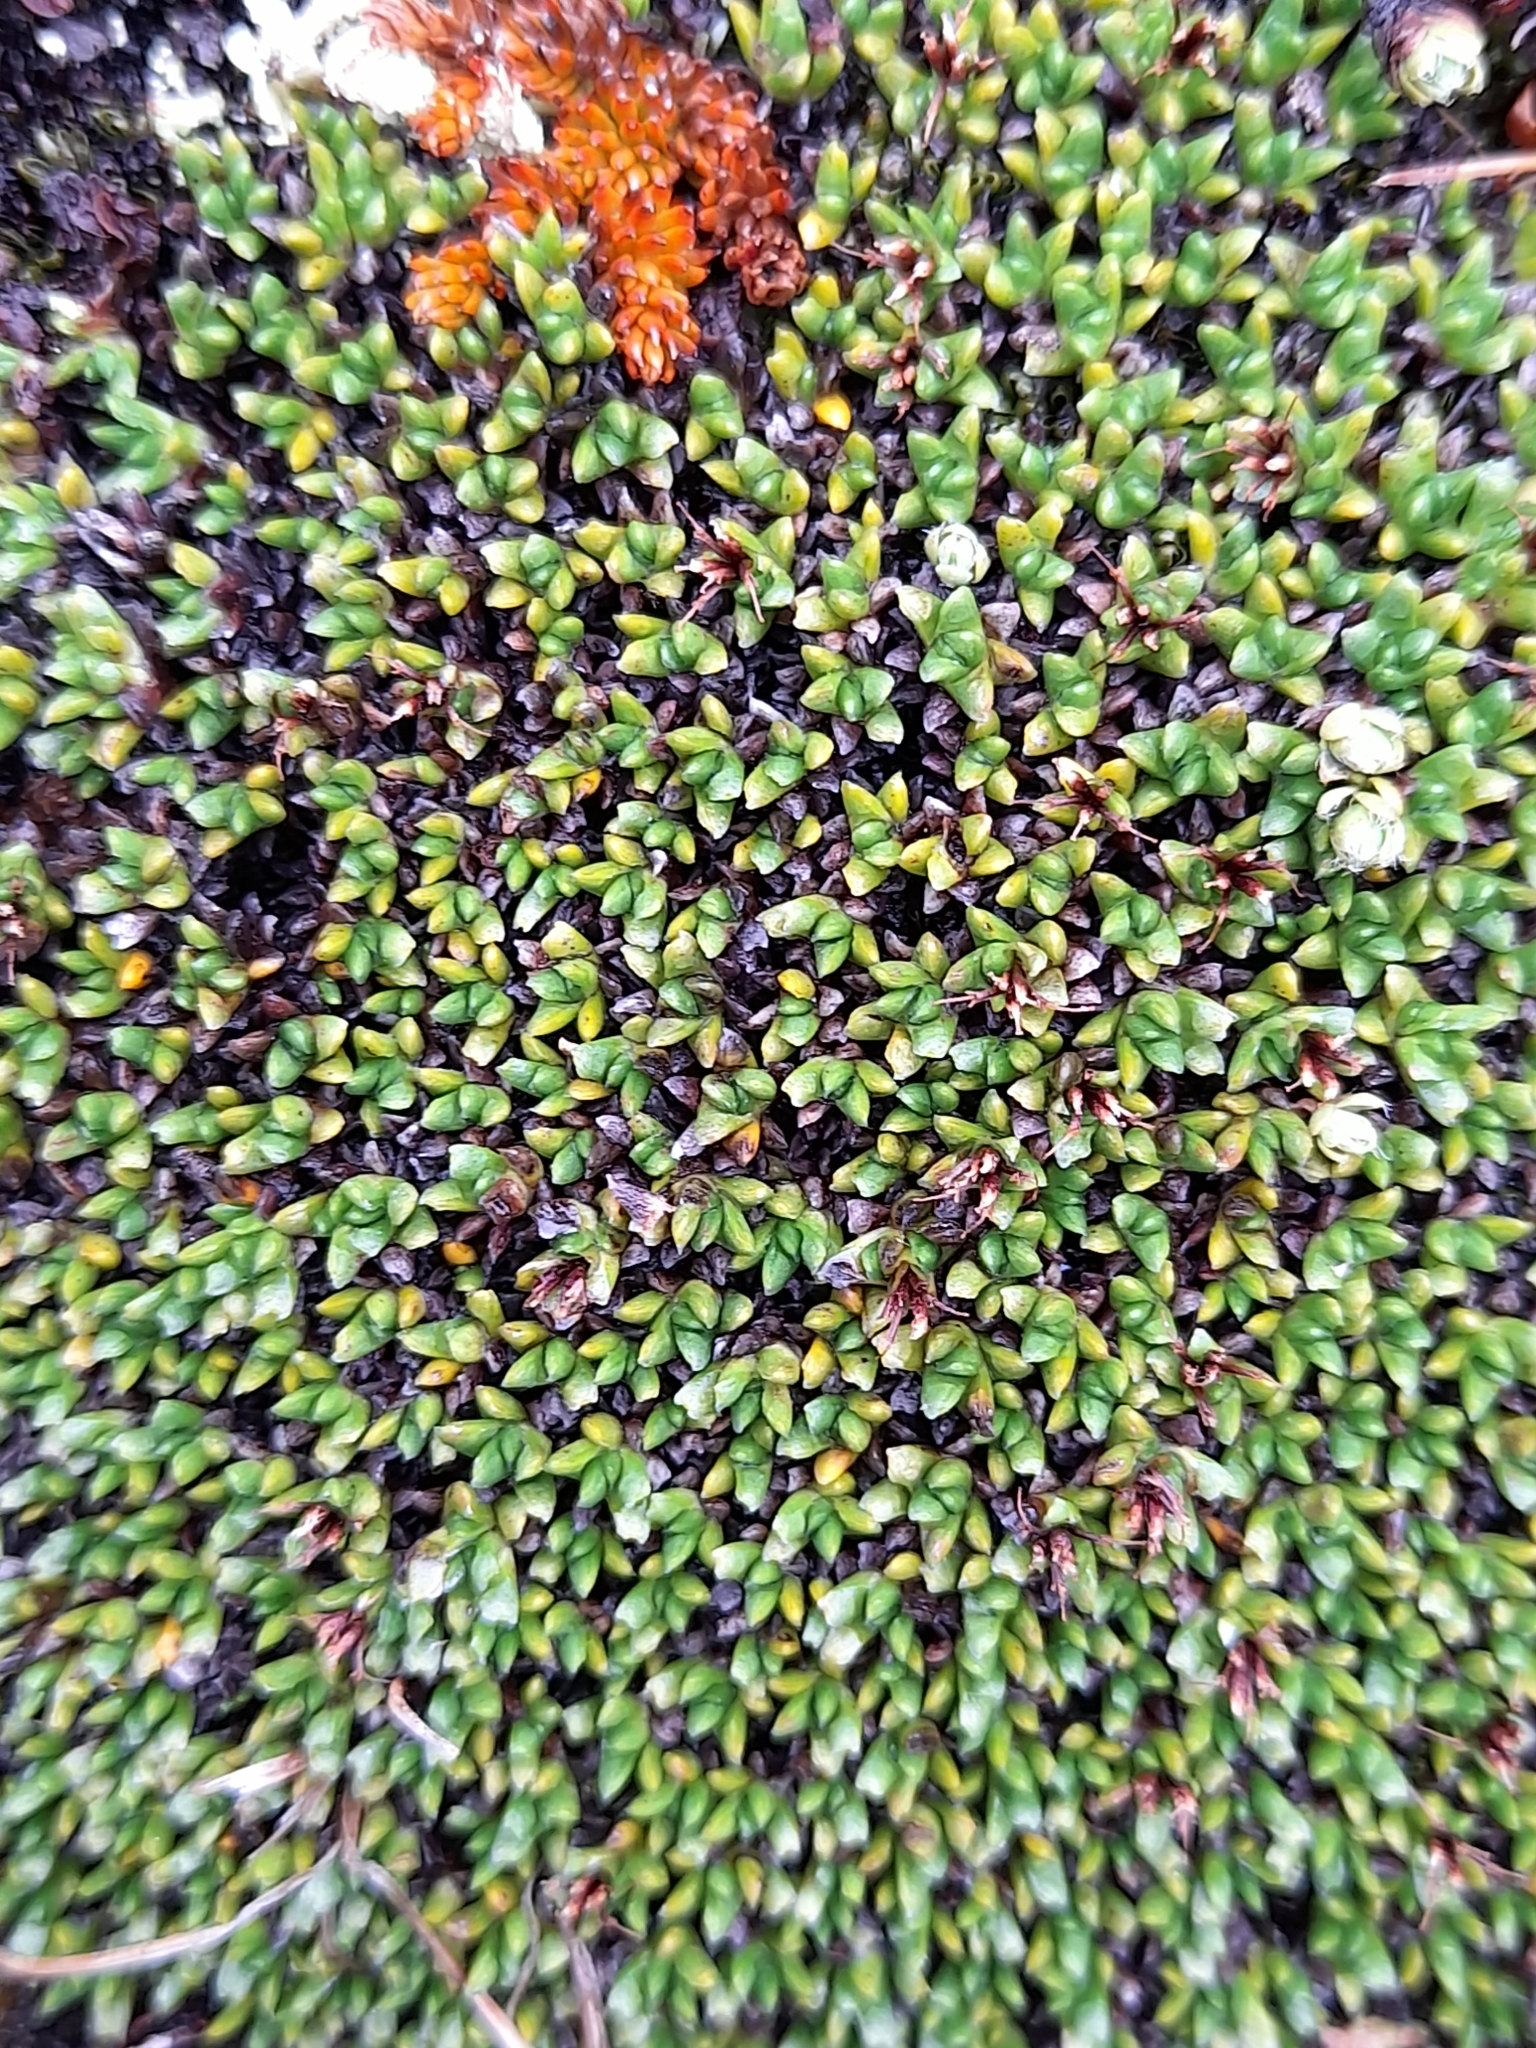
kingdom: Plantae
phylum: Tracheophyta
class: Magnoliopsida
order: Asterales
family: Asteraceae
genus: Abrotanella
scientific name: Abrotanella emarginata
